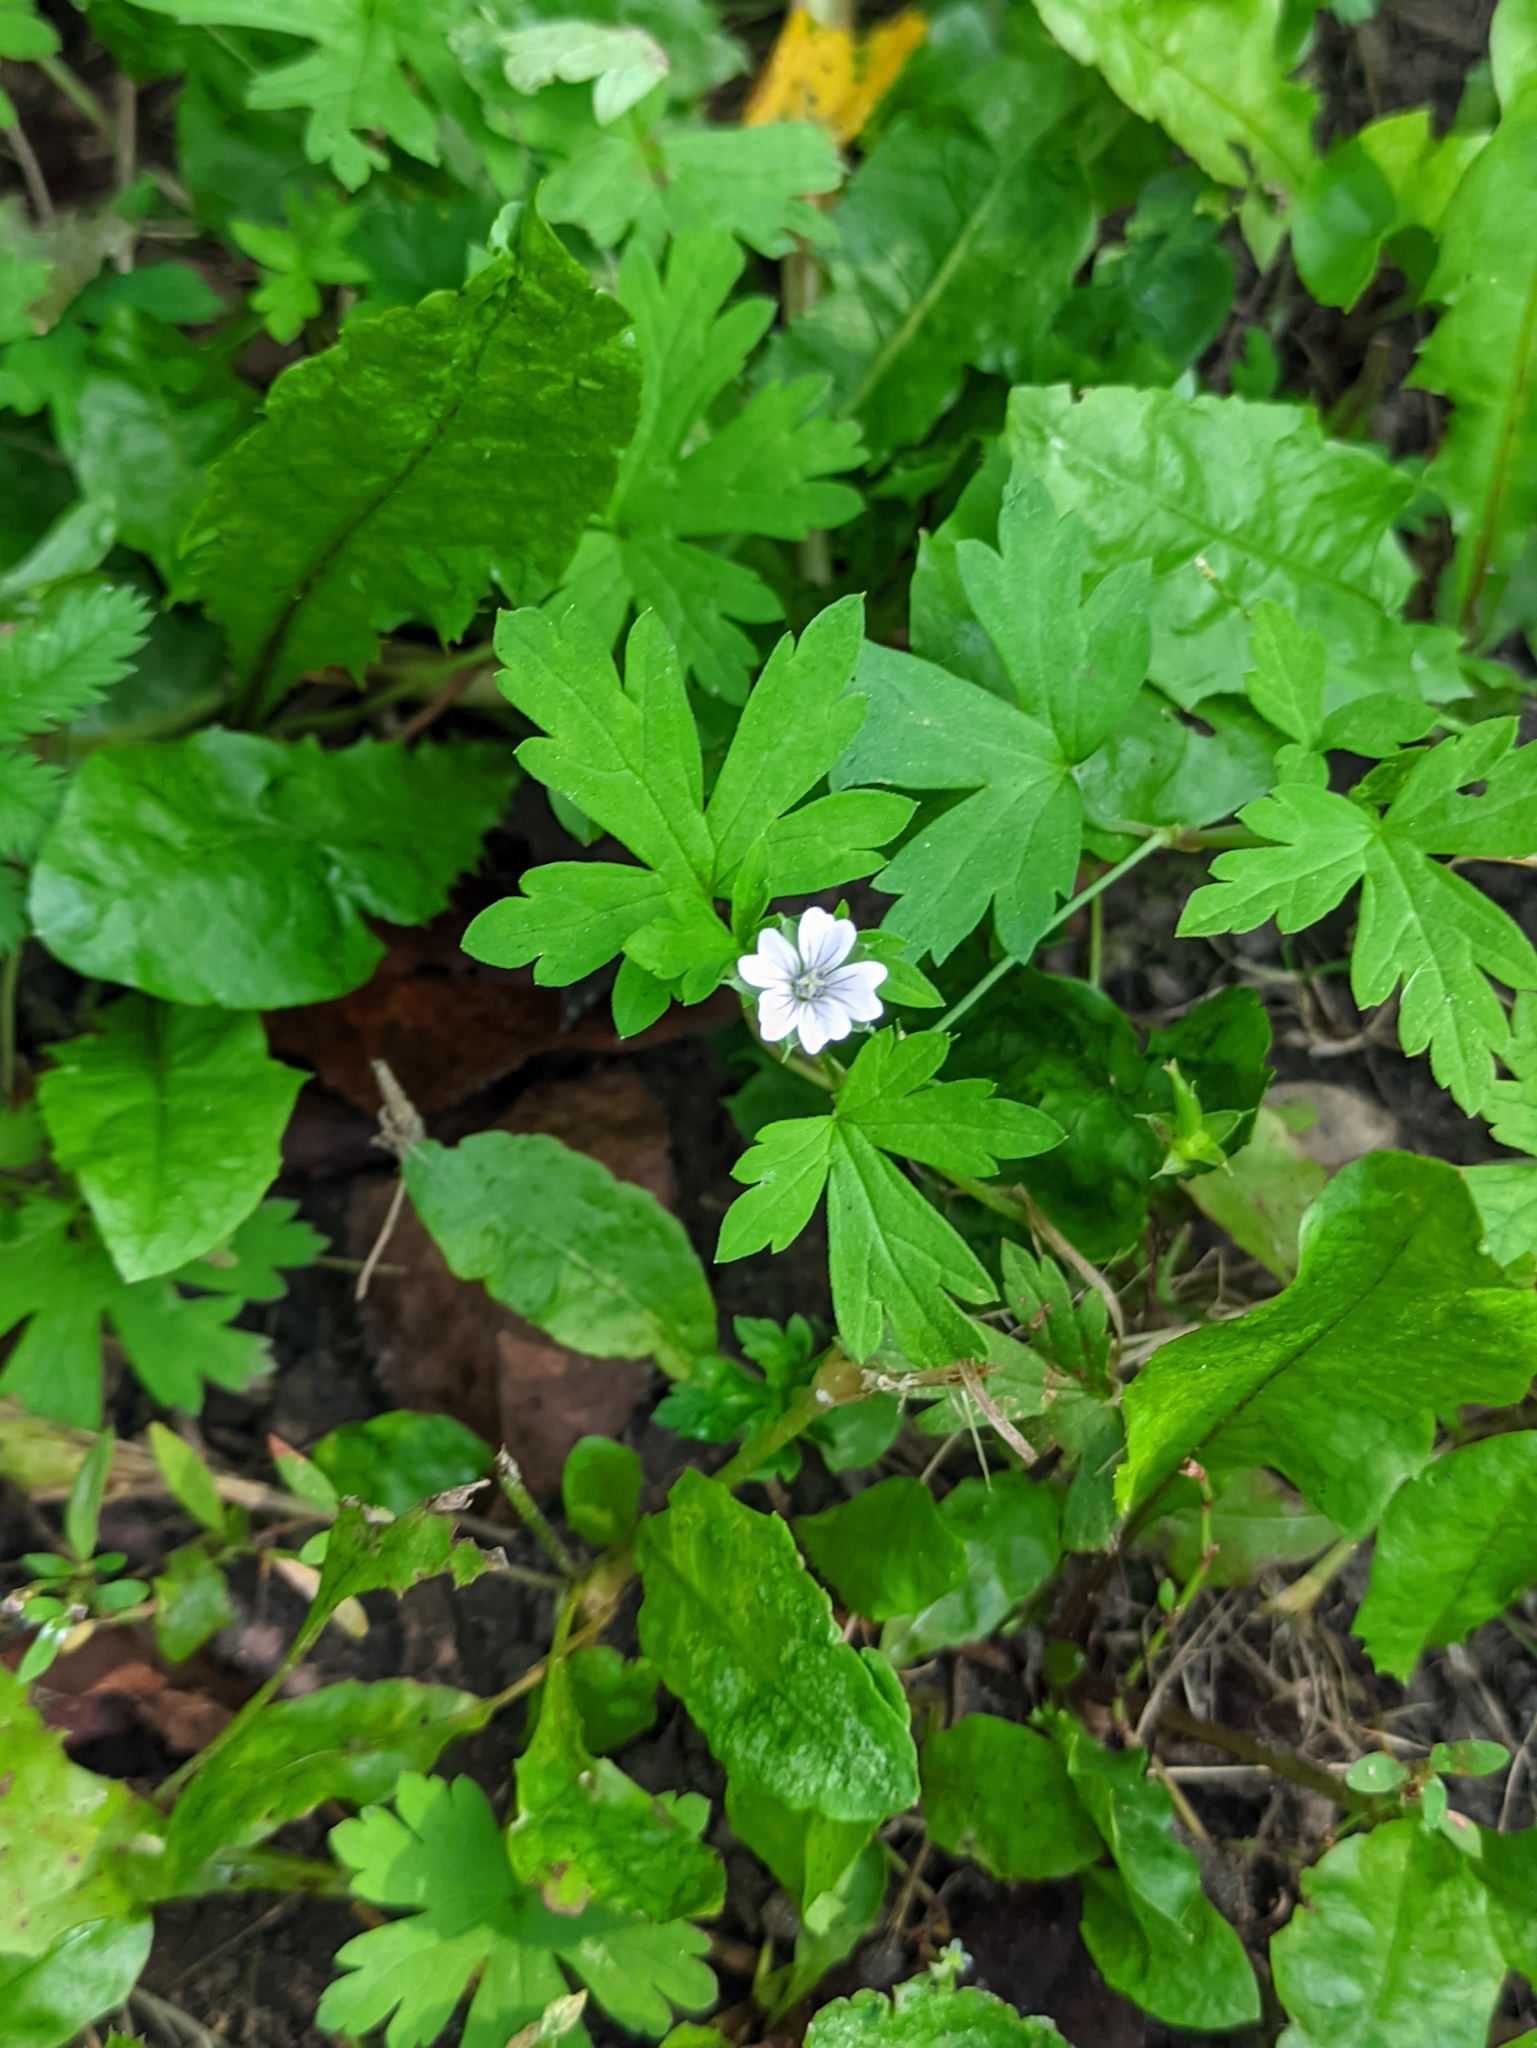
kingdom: Plantae
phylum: Tracheophyta
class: Magnoliopsida
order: Geraniales
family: Geraniaceae
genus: Geranium
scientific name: Geranium sibiricum
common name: Siberian crane's-bill
